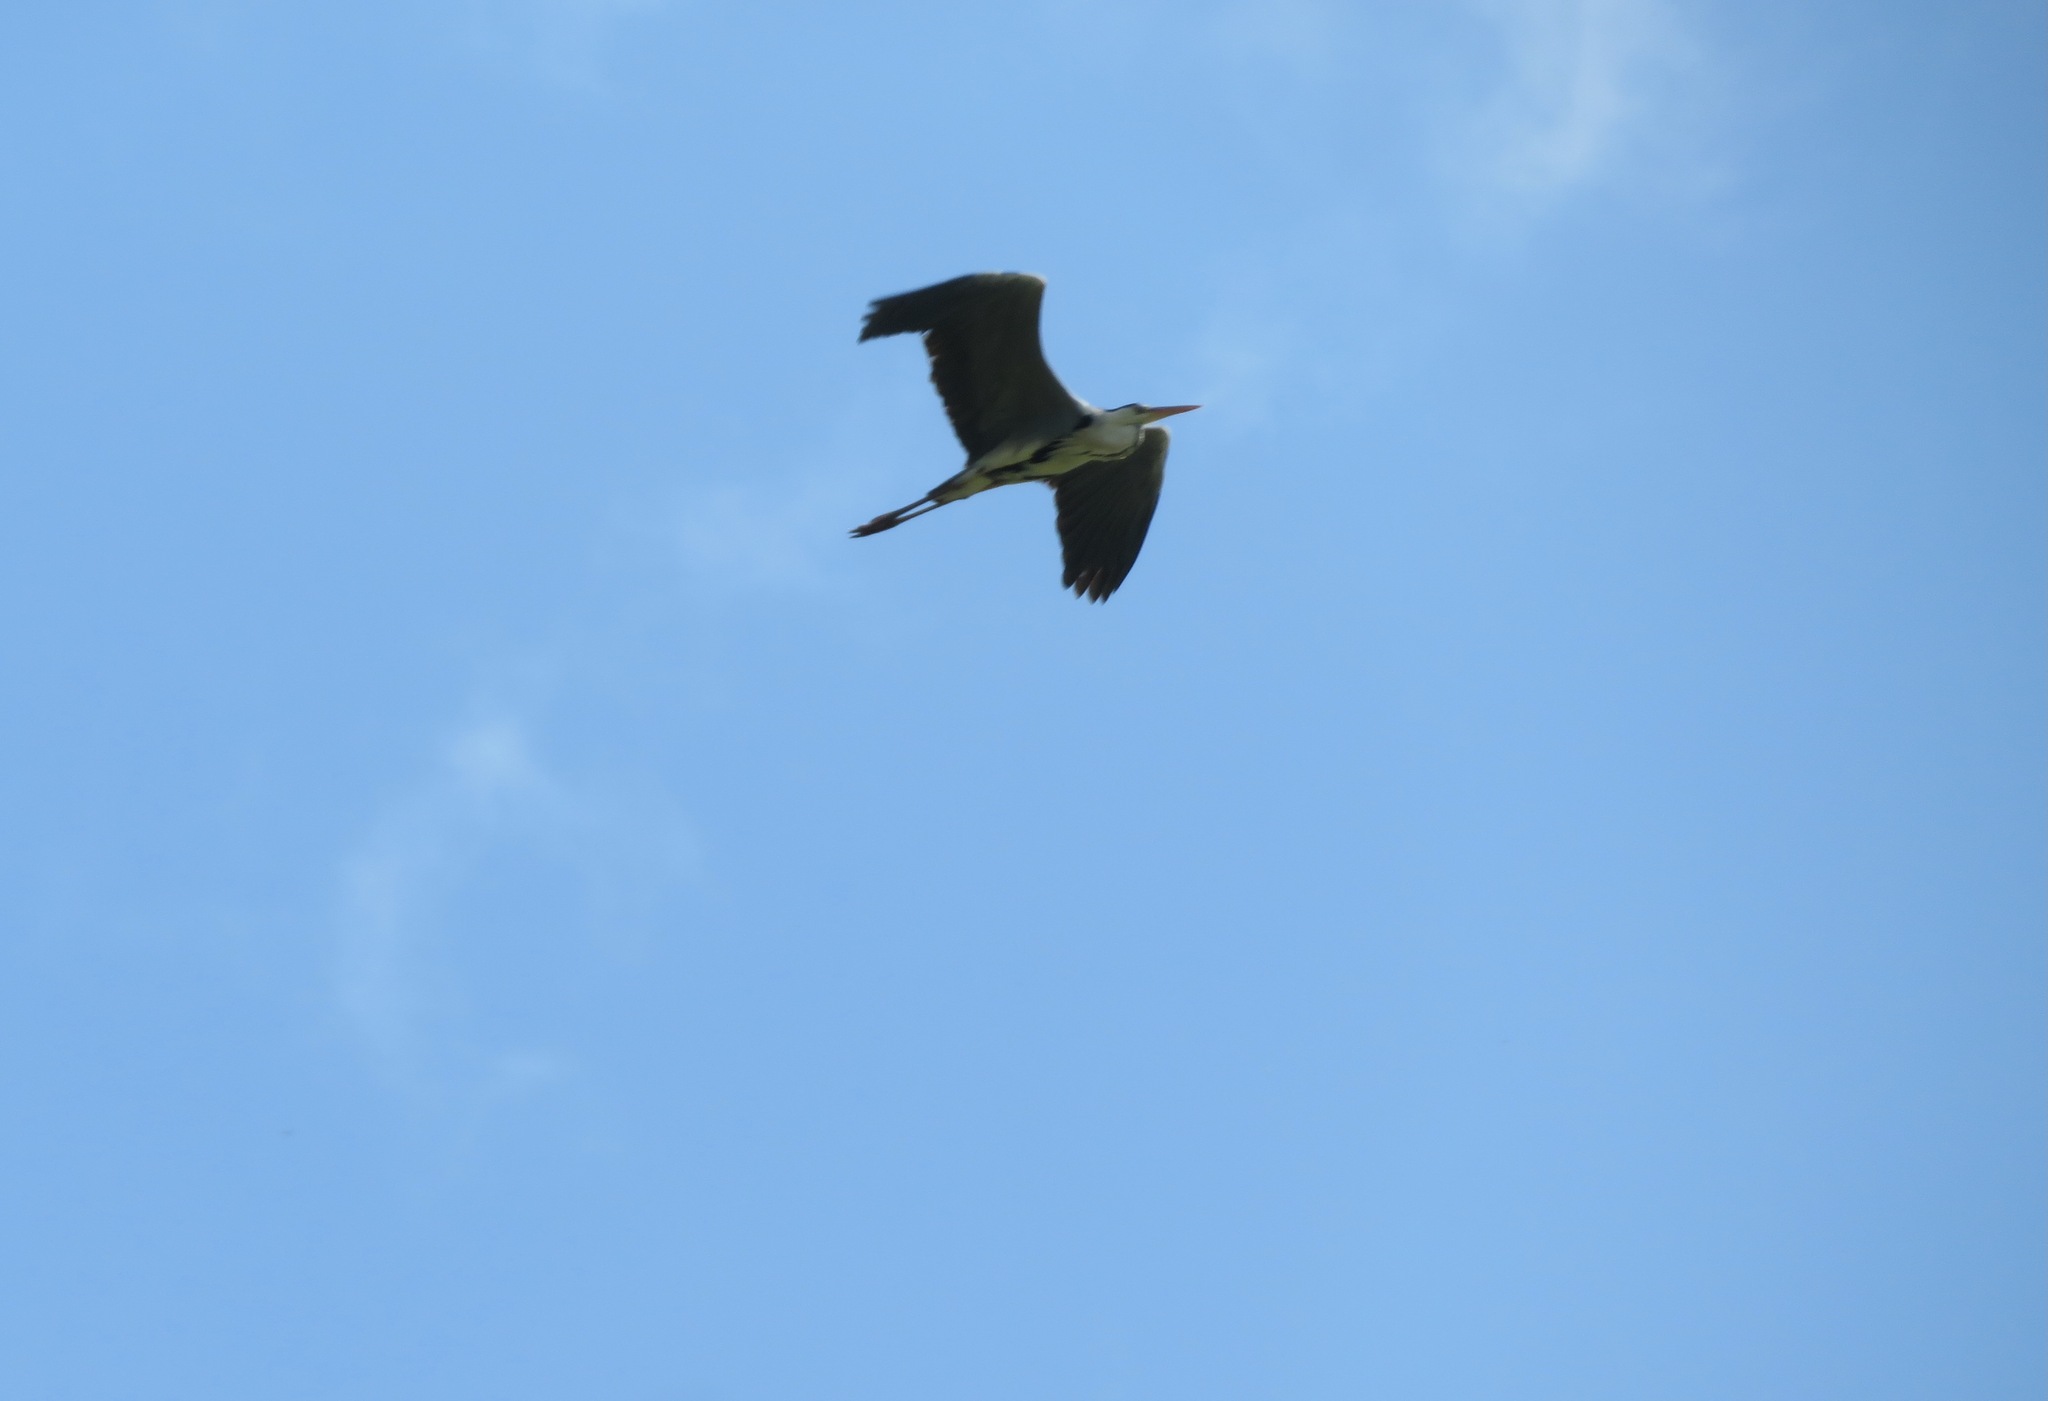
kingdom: Animalia
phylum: Chordata
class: Aves
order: Pelecaniformes
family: Ardeidae
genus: Ardea
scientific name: Ardea cinerea
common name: Grey heron
